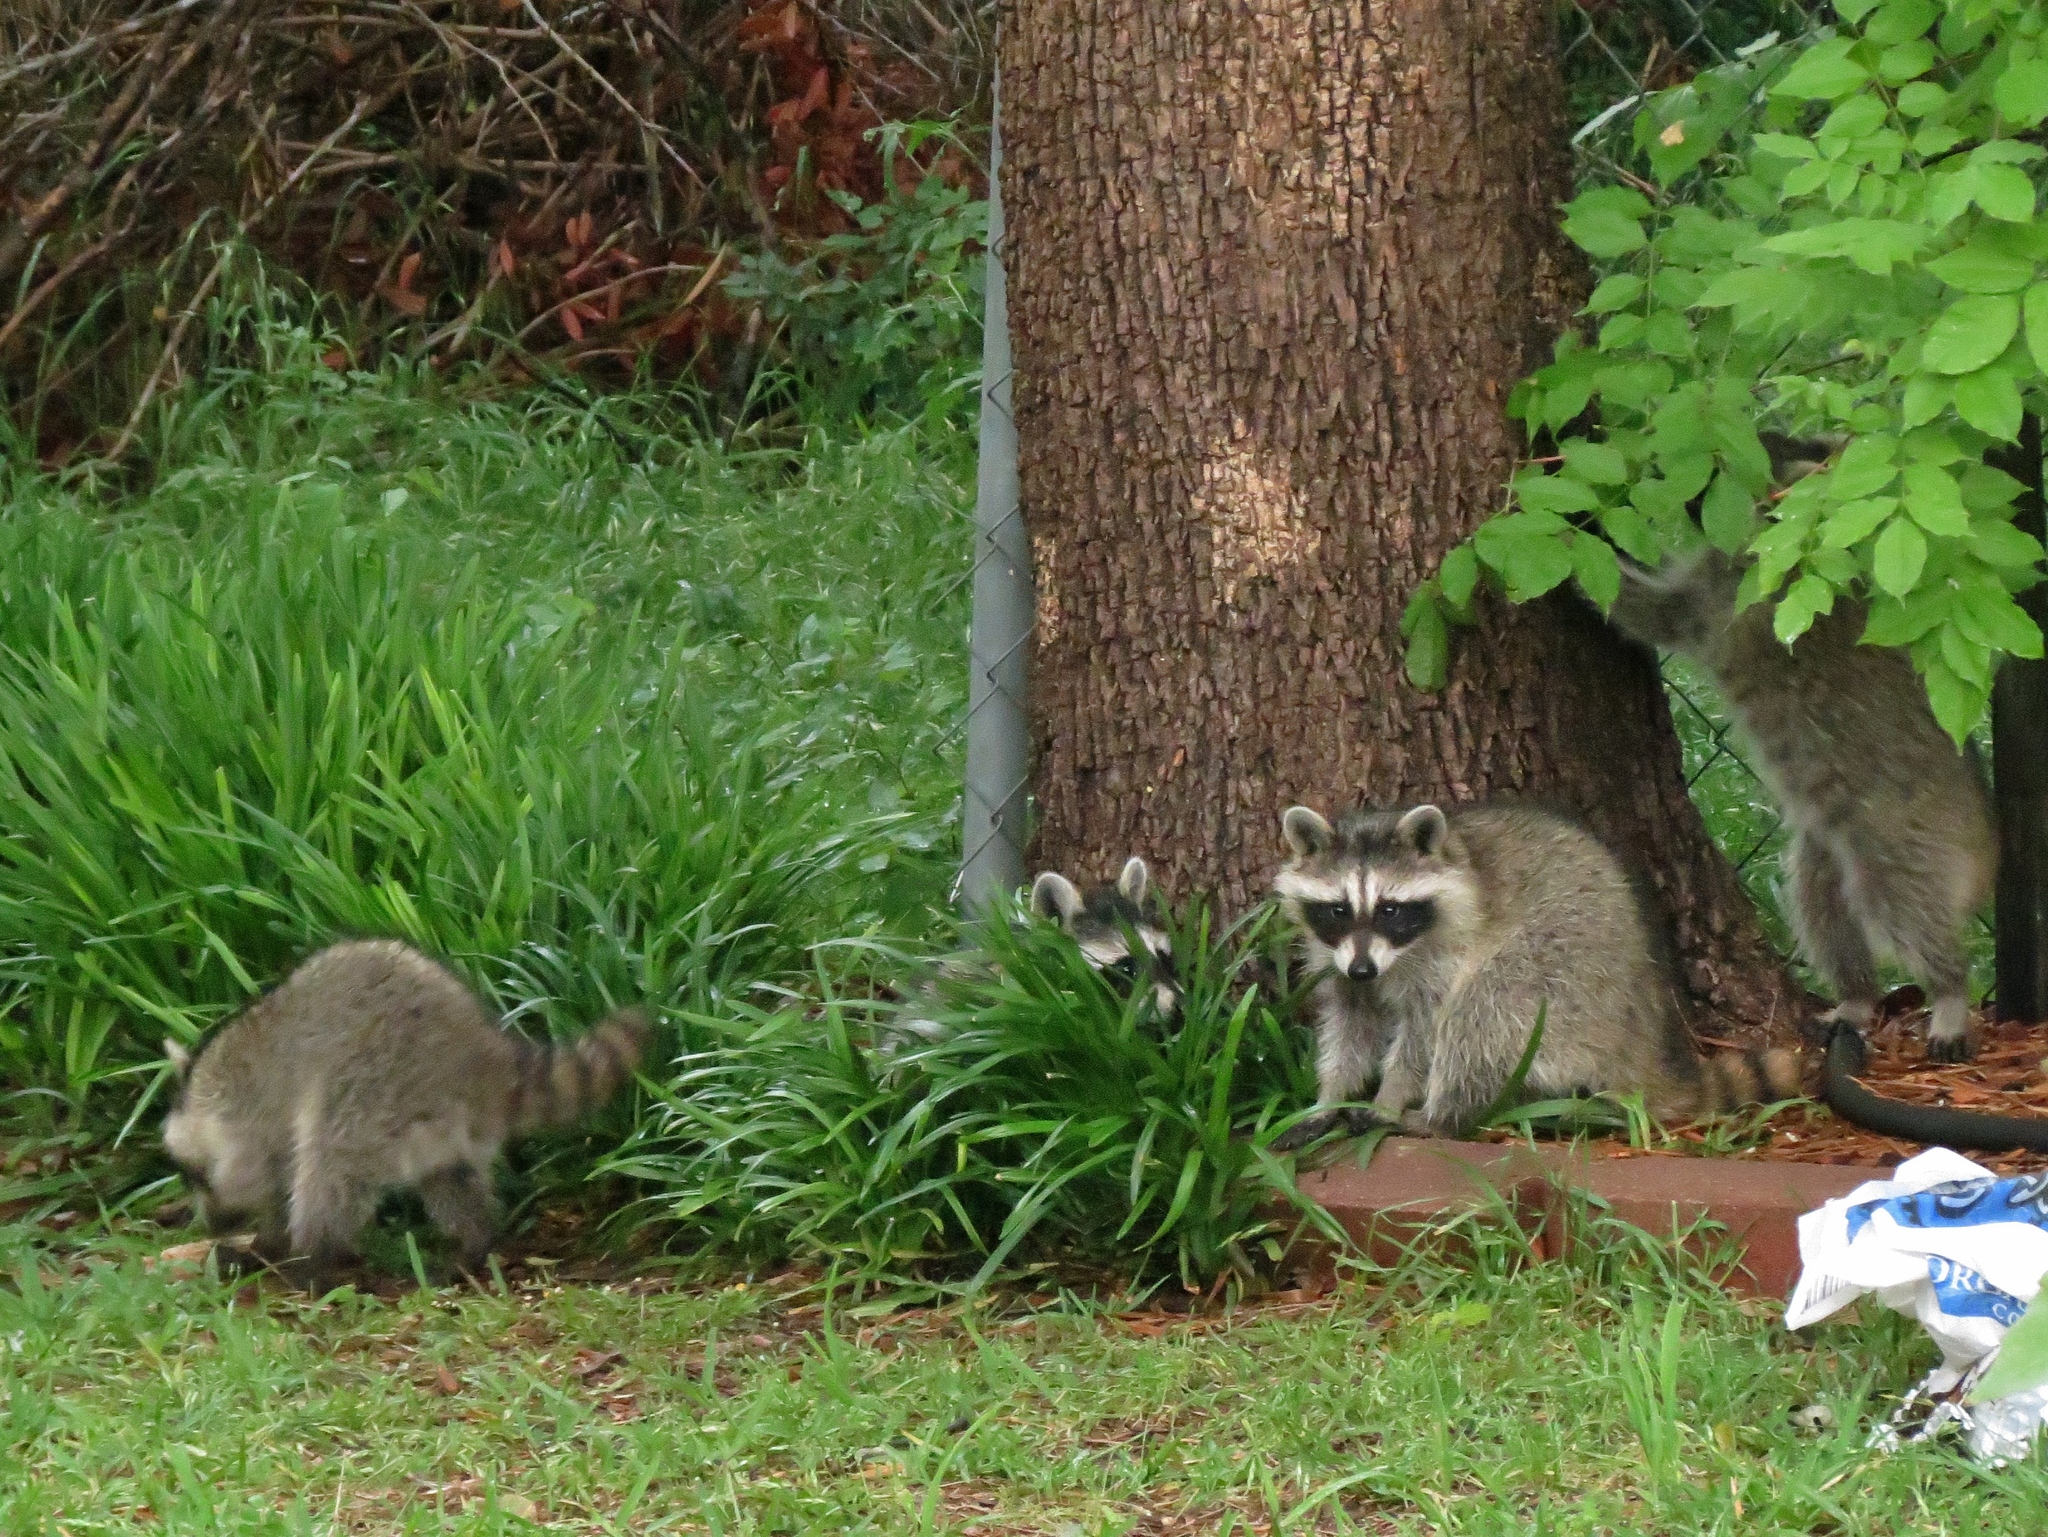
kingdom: Animalia
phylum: Chordata
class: Mammalia
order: Carnivora
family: Procyonidae
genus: Procyon
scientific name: Procyon lotor
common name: Raccoon
